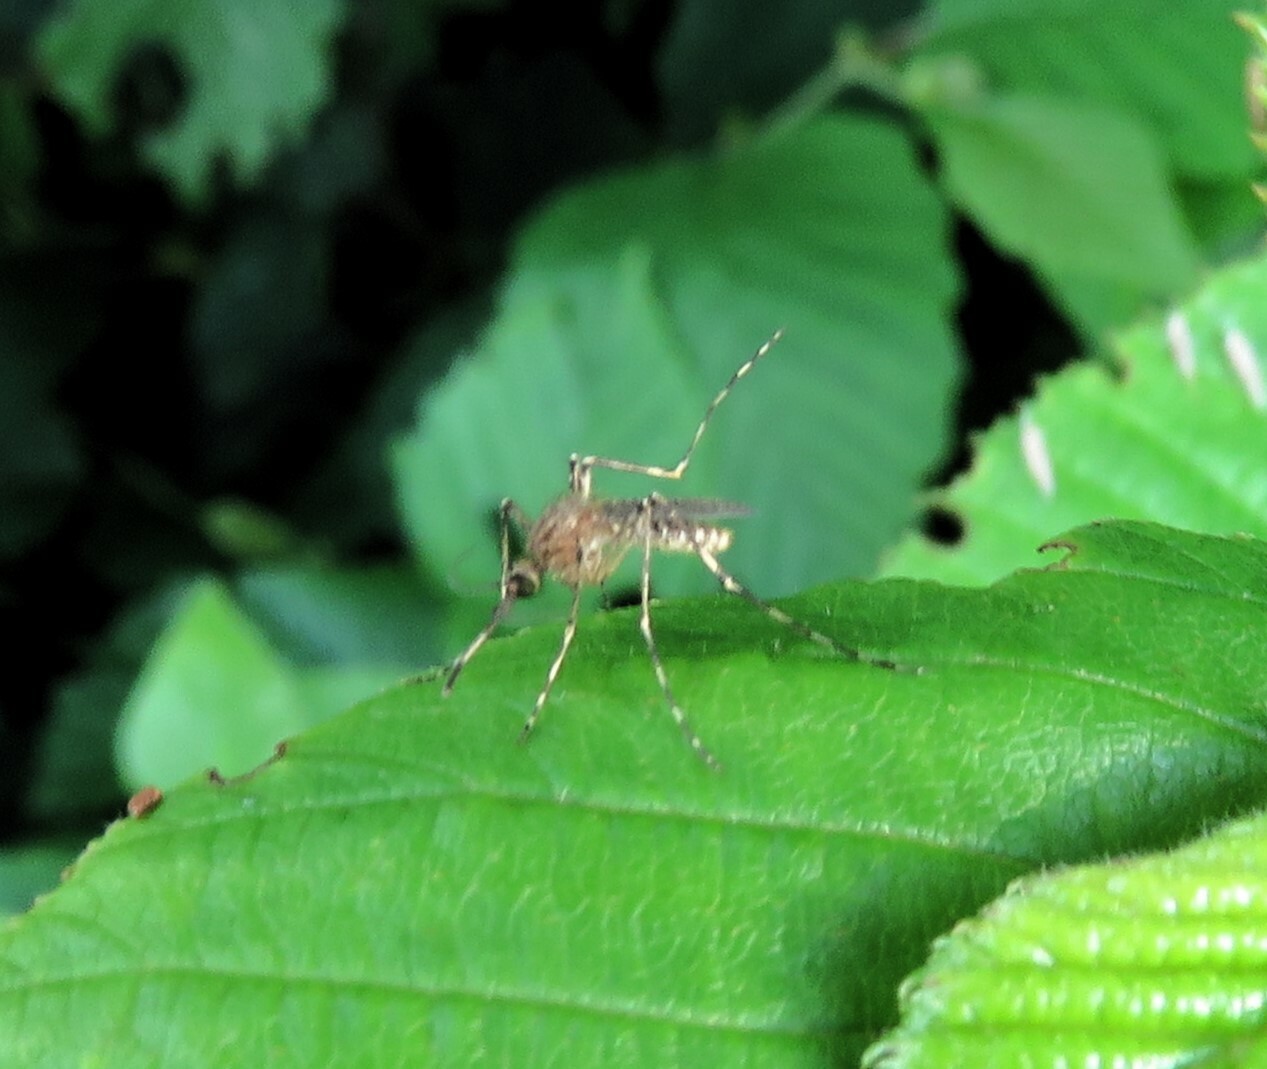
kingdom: Animalia
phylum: Arthropoda
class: Insecta
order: Diptera
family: Culicidae
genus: Coquillettidia
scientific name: Coquillettidia perturbans
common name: Cattail mosquito
